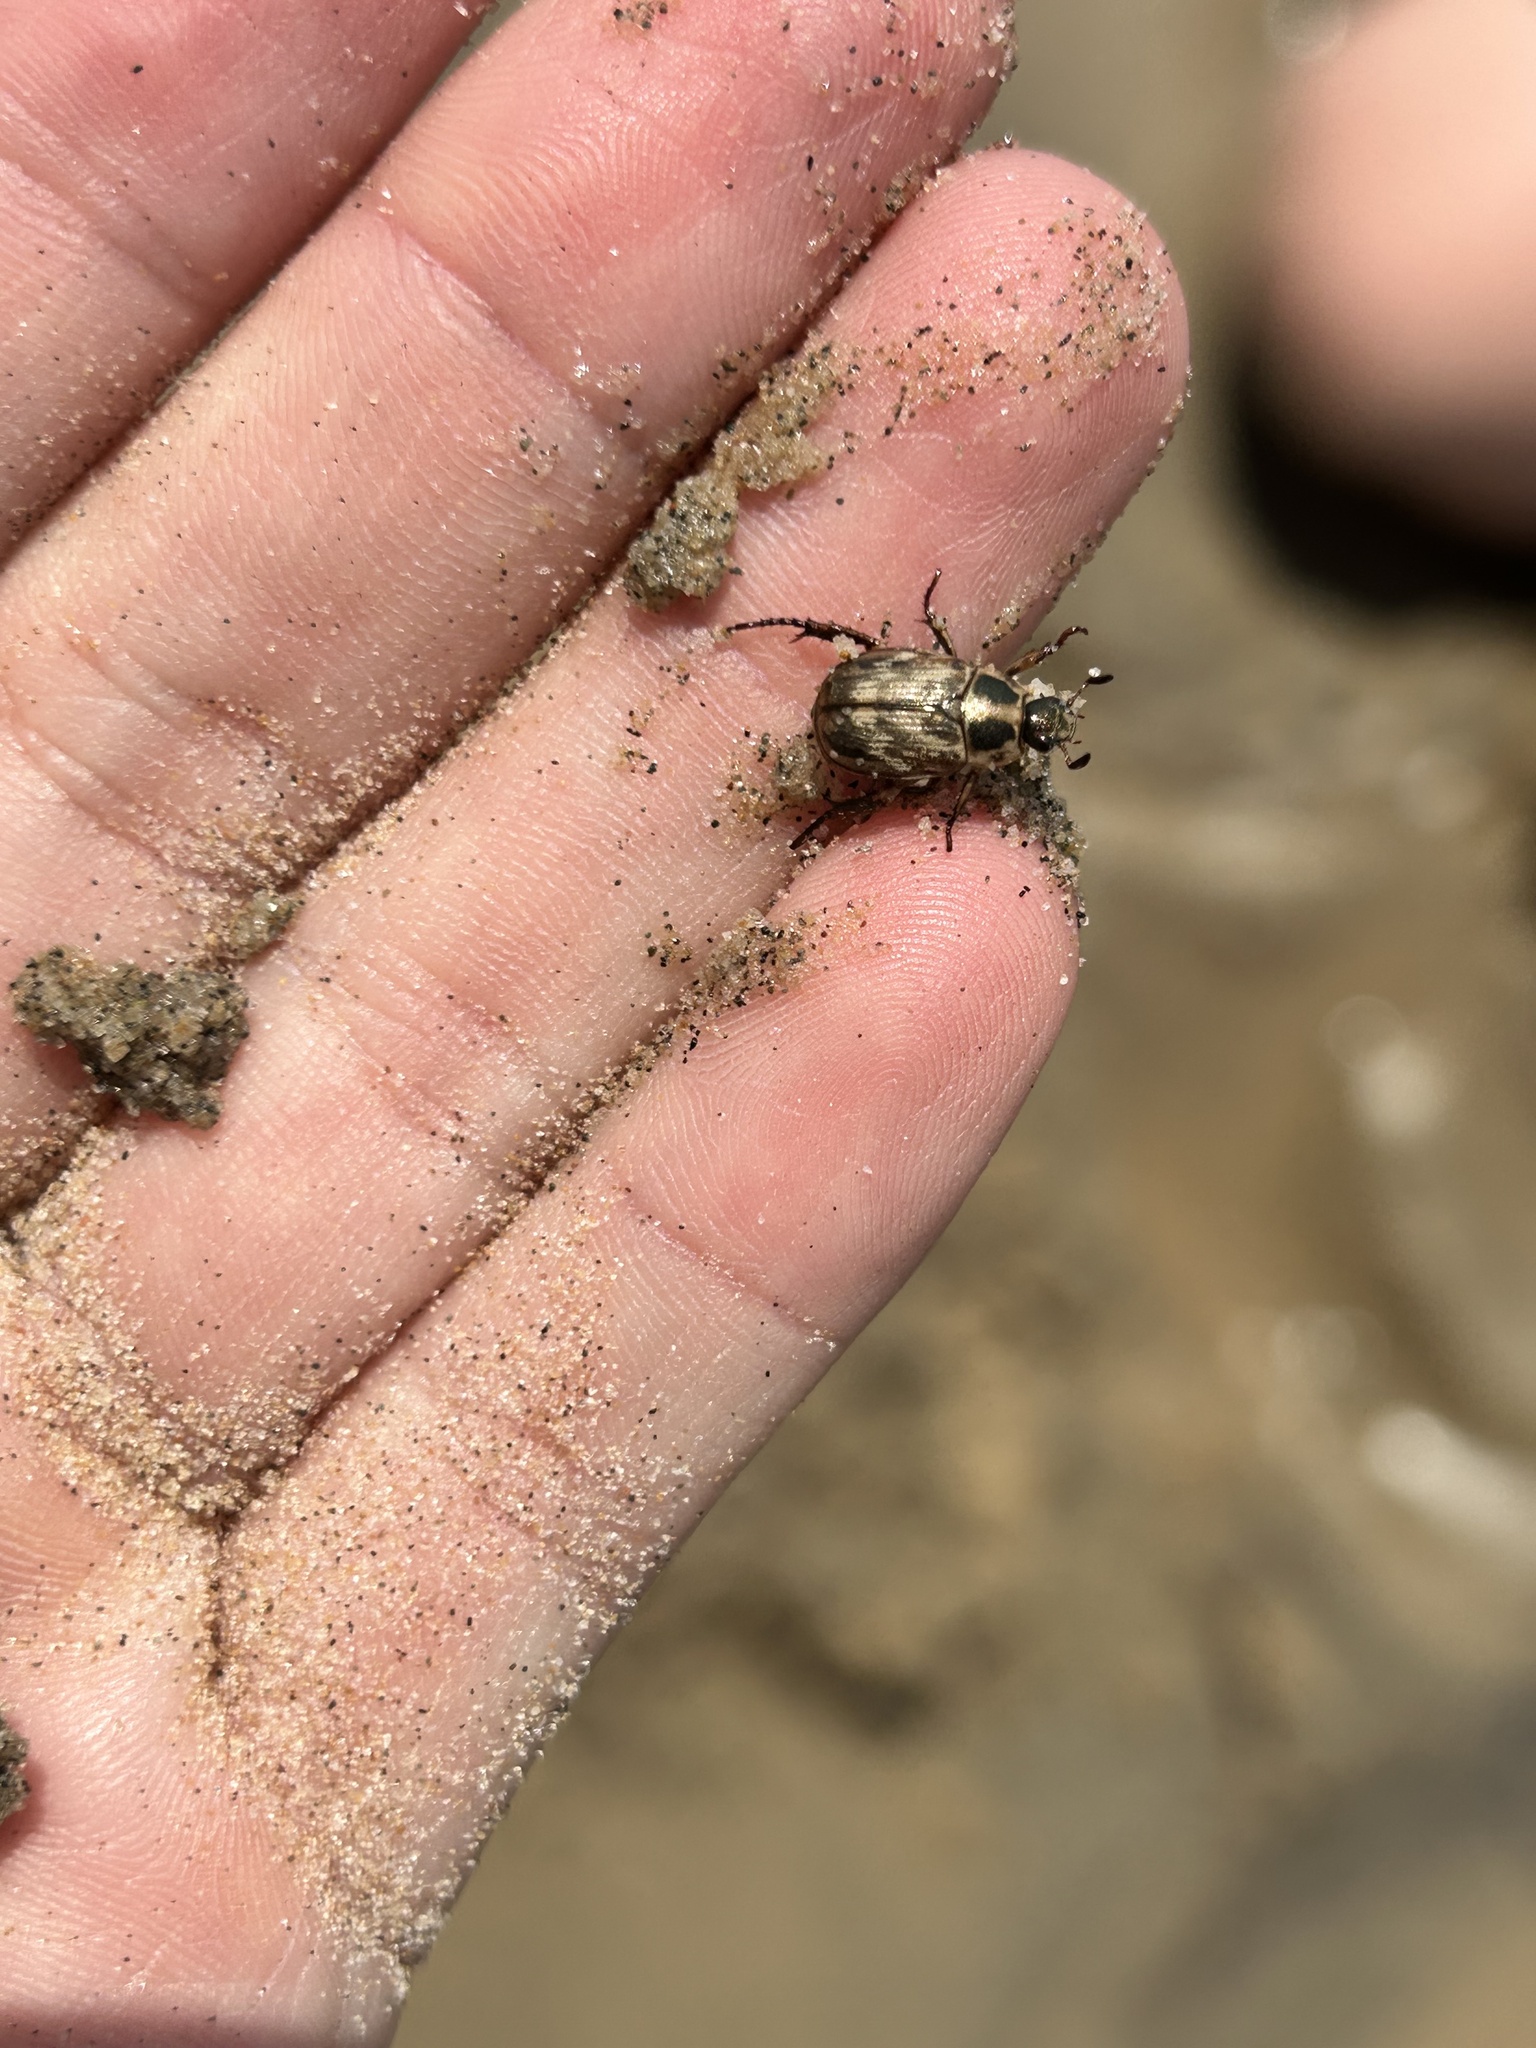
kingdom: Animalia
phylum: Arthropoda
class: Insecta
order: Coleoptera
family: Scarabaeidae
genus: Exomala
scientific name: Exomala orientalis
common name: Oriental beetle
